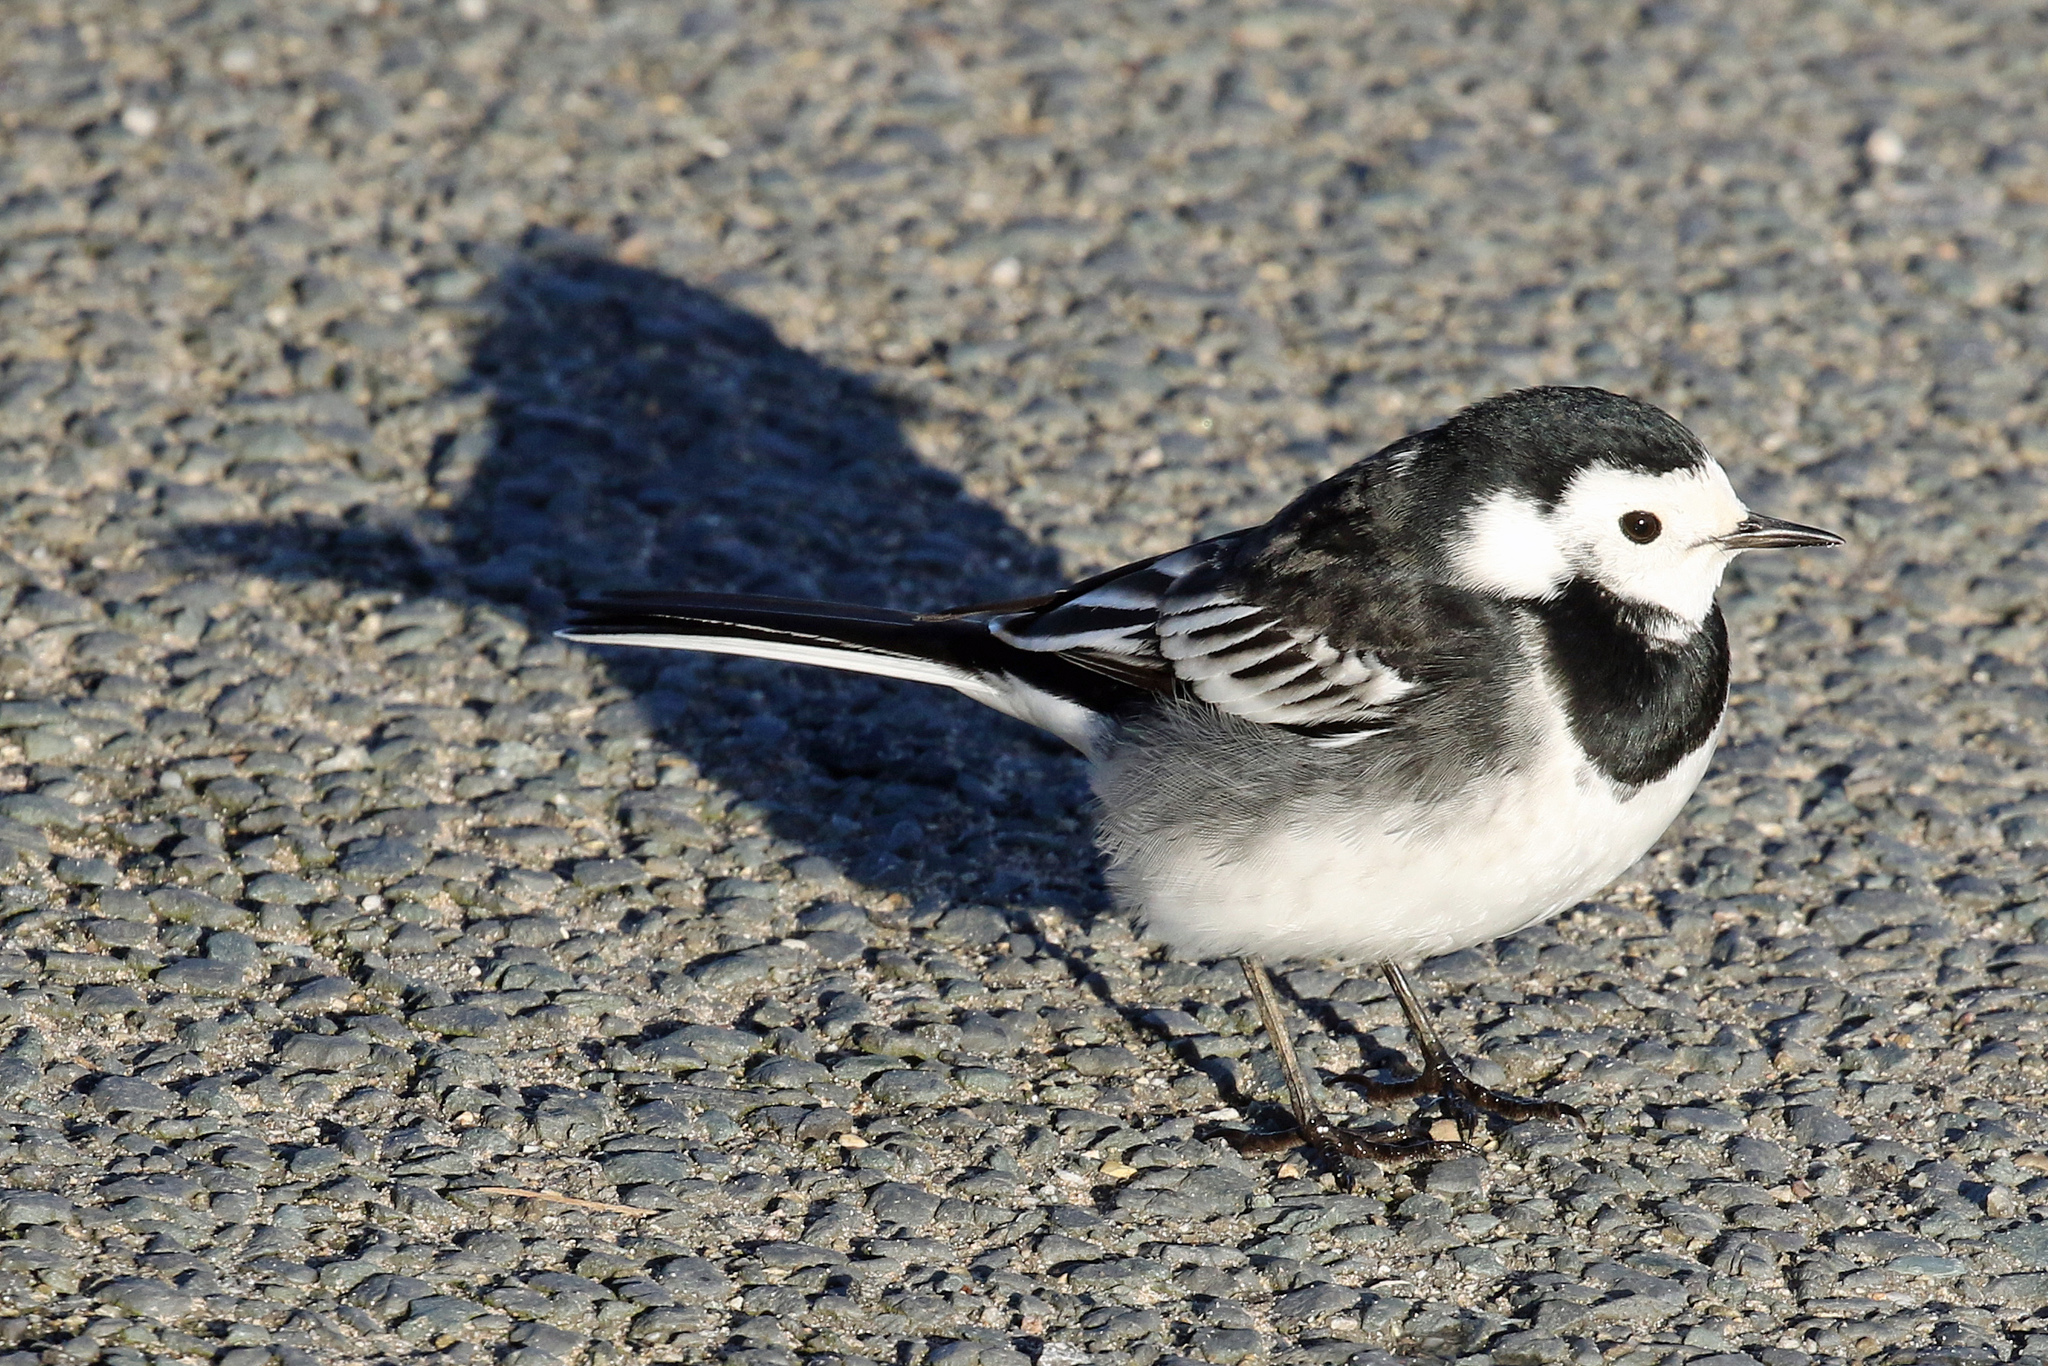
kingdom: Animalia
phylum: Chordata
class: Aves
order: Passeriformes
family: Motacillidae
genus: Motacilla
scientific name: Motacilla alba
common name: White wagtail
